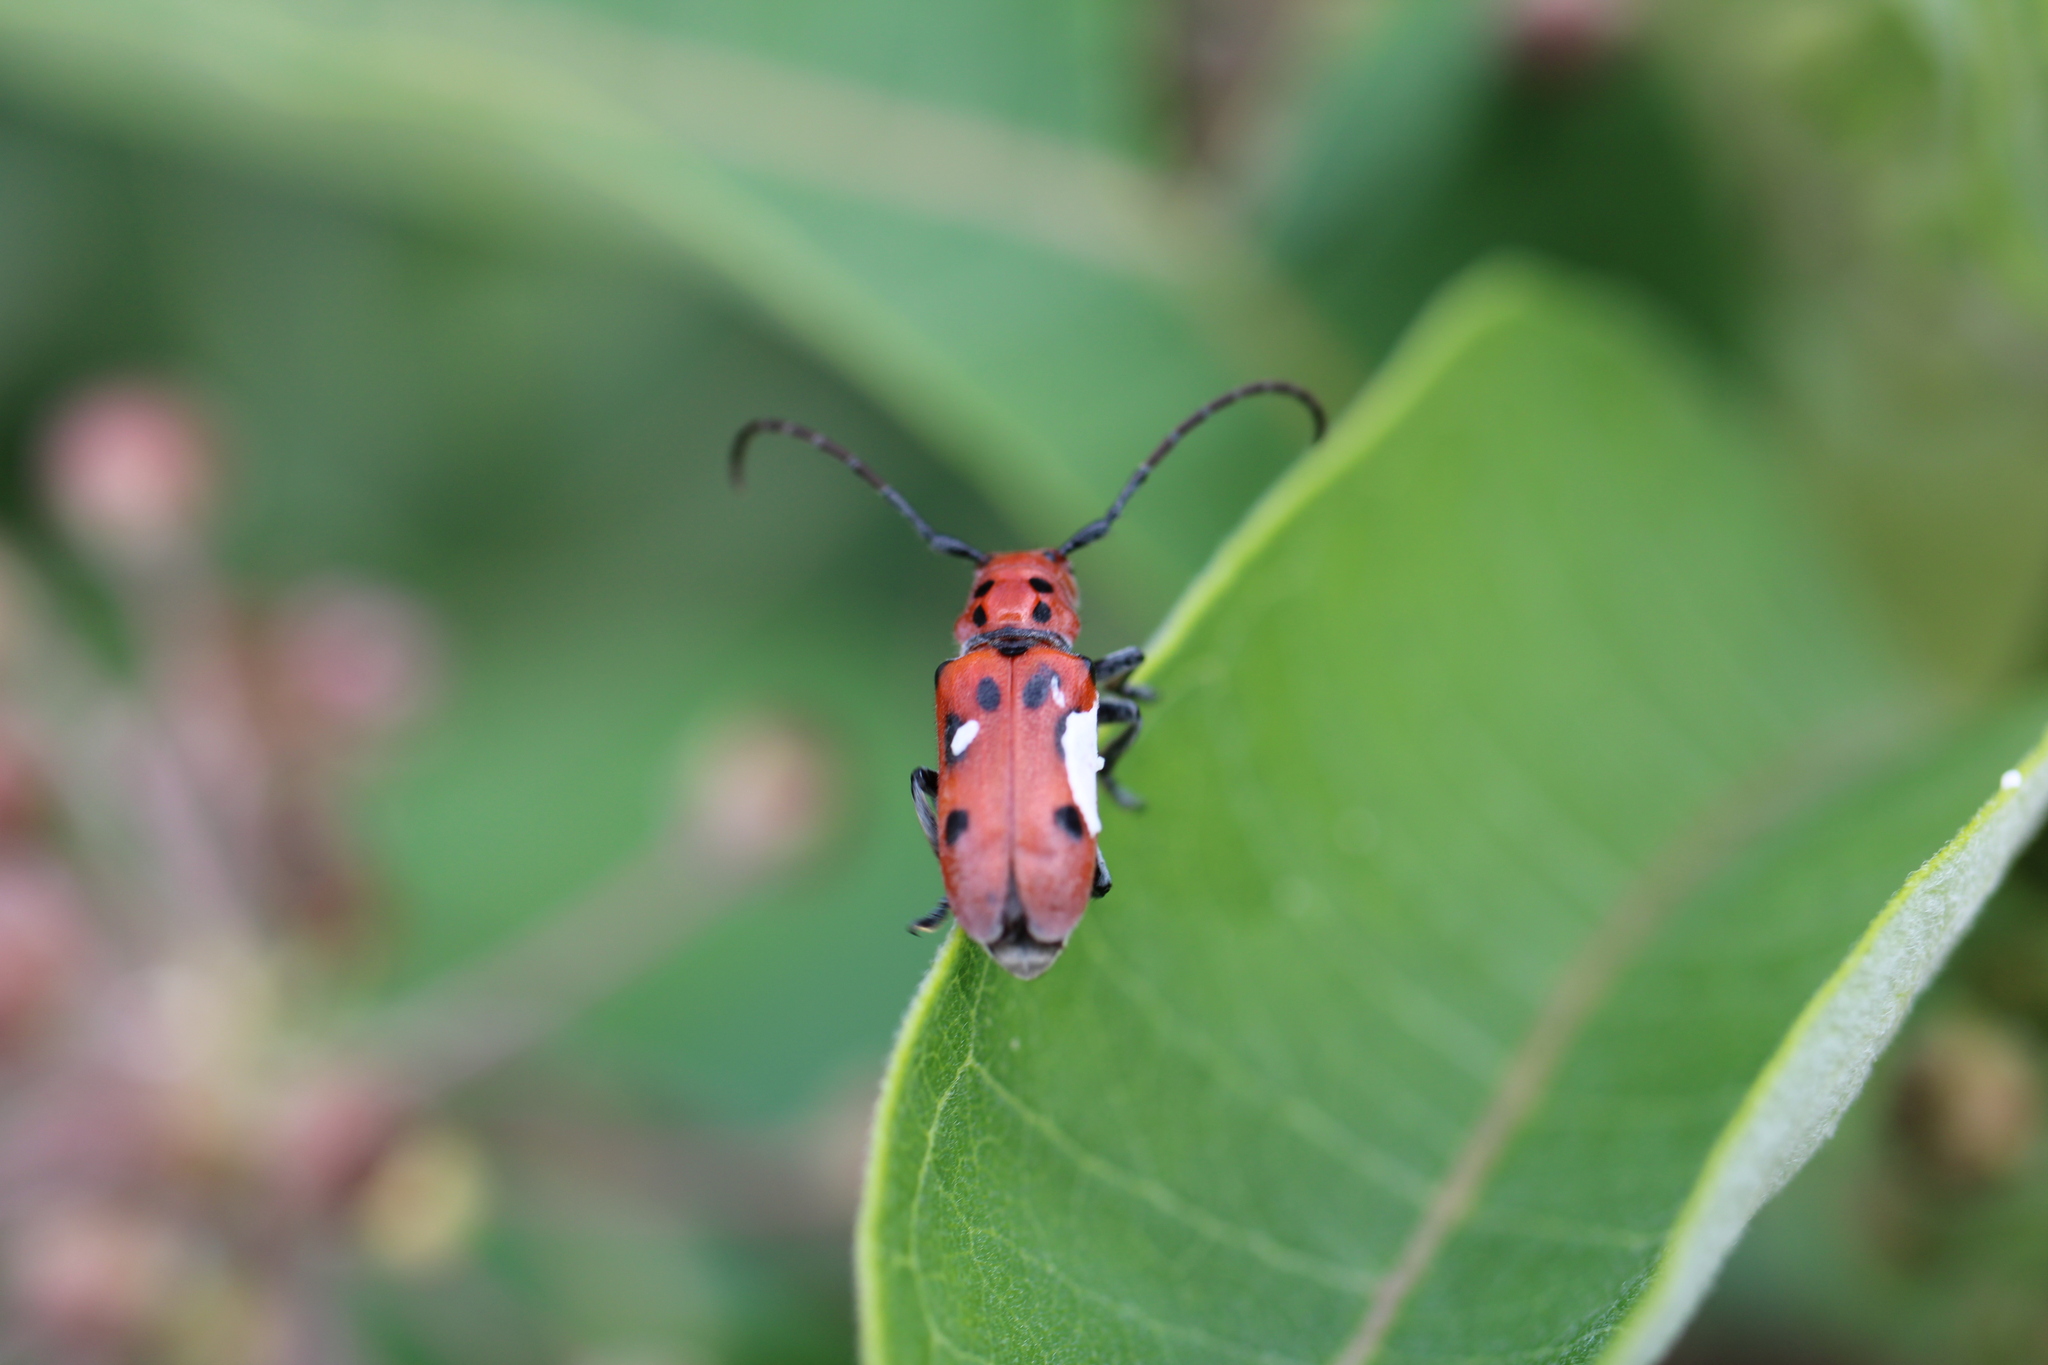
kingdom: Animalia
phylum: Arthropoda
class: Insecta
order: Coleoptera
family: Cerambycidae
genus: Tetraopes
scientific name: Tetraopes tetrophthalmus
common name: Red milkweed beetle
